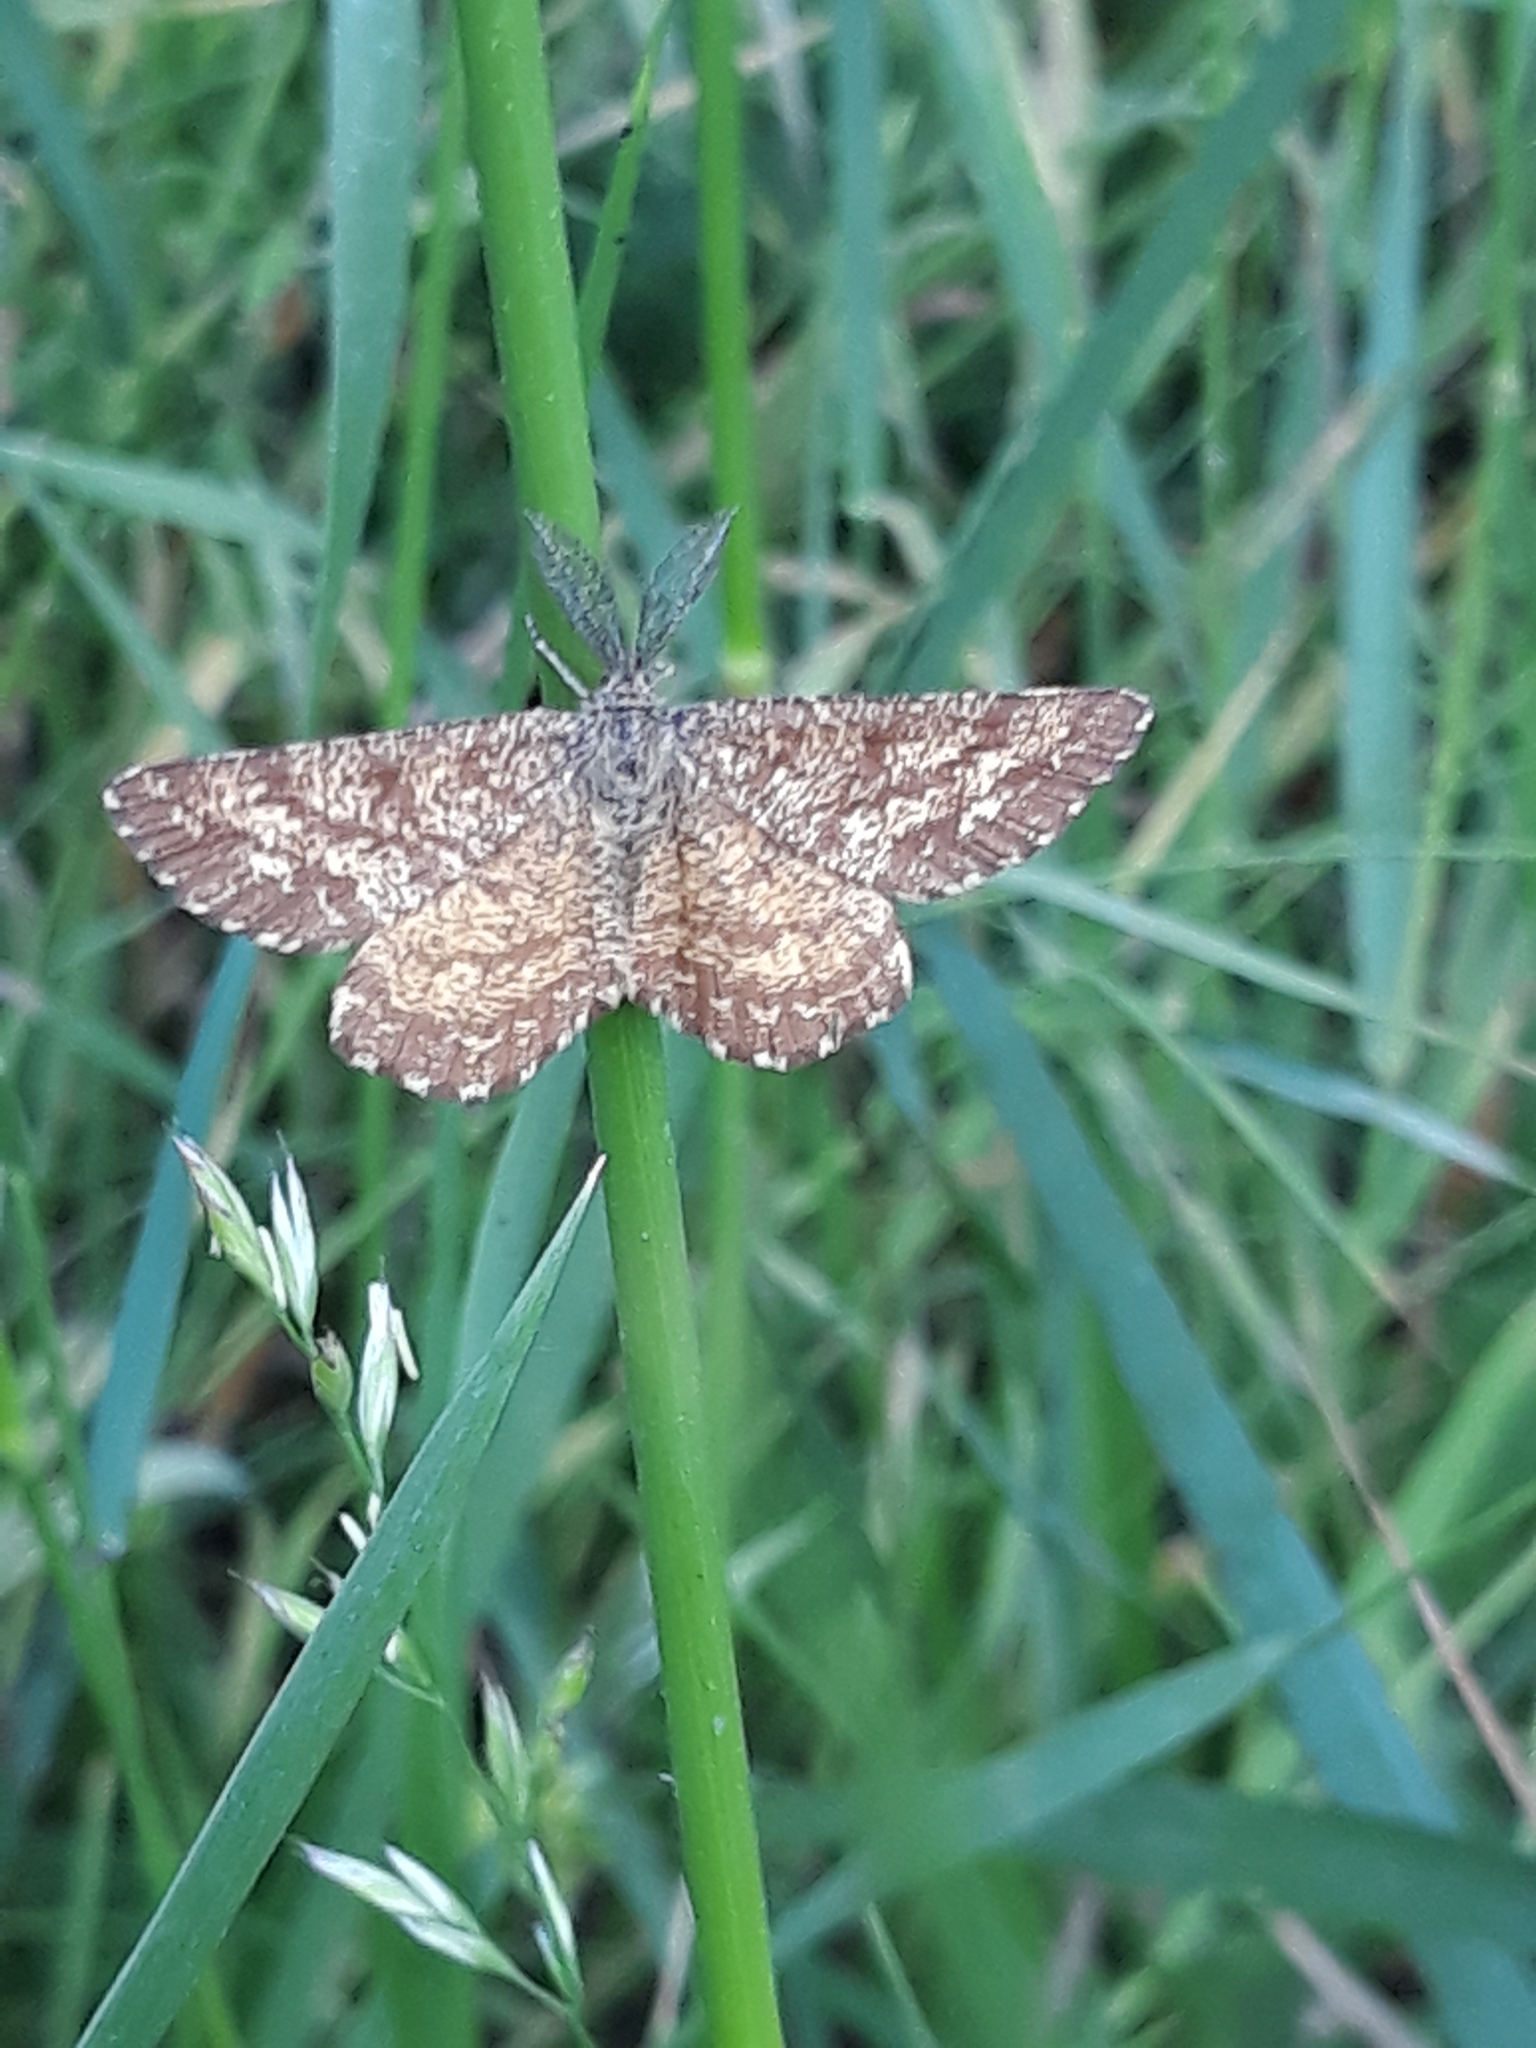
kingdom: Animalia
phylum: Arthropoda
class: Insecta
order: Lepidoptera
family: Geometridae
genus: Ematurga
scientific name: Ematurga atomaria
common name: Common heath
